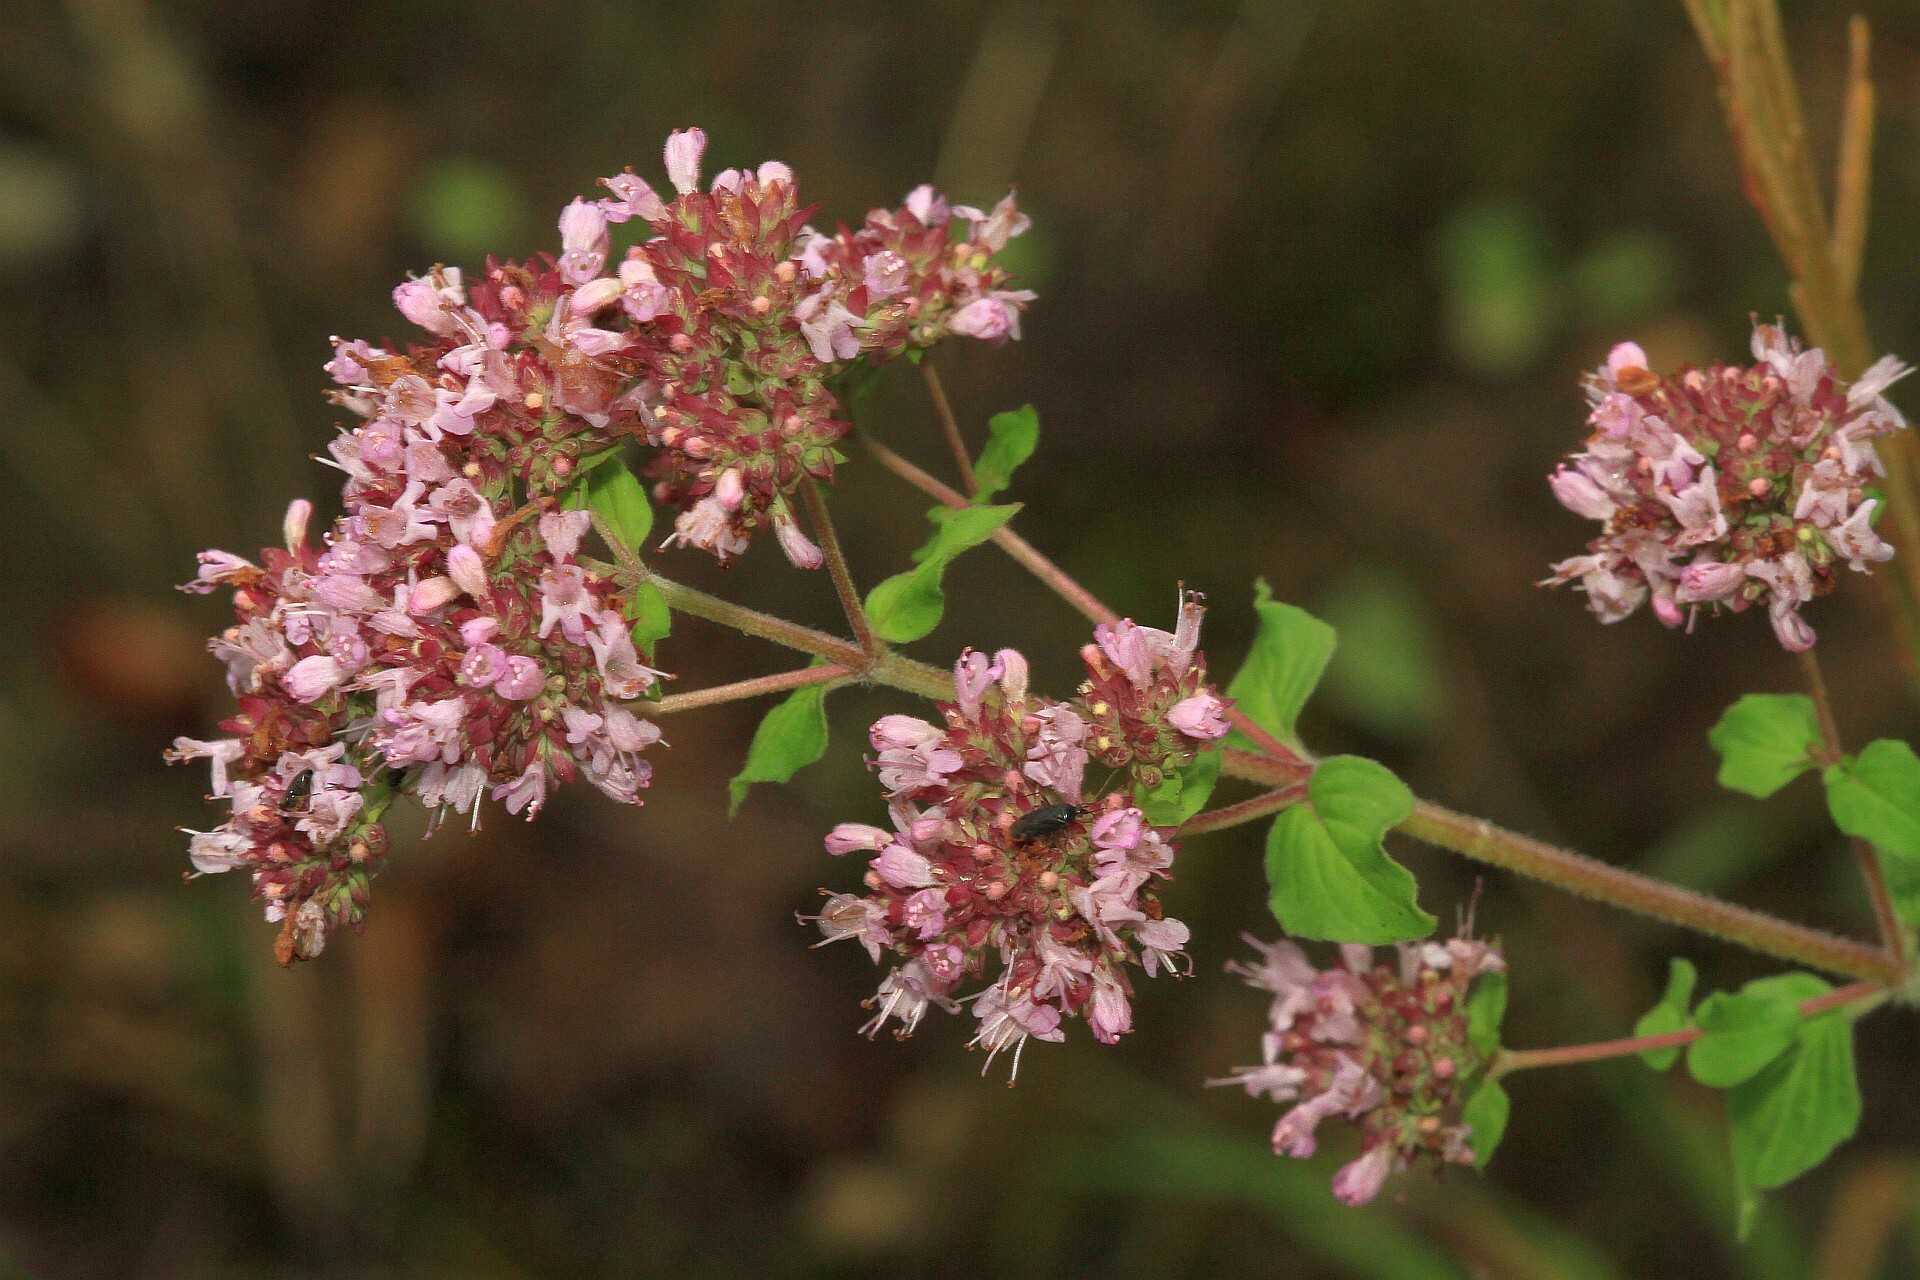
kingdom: Plantae
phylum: Tracheophyta
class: Magnoliopsida
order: Lamiales
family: Lamiaceae
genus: Origanum
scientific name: Origanum vulgare
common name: Wild marjoram
